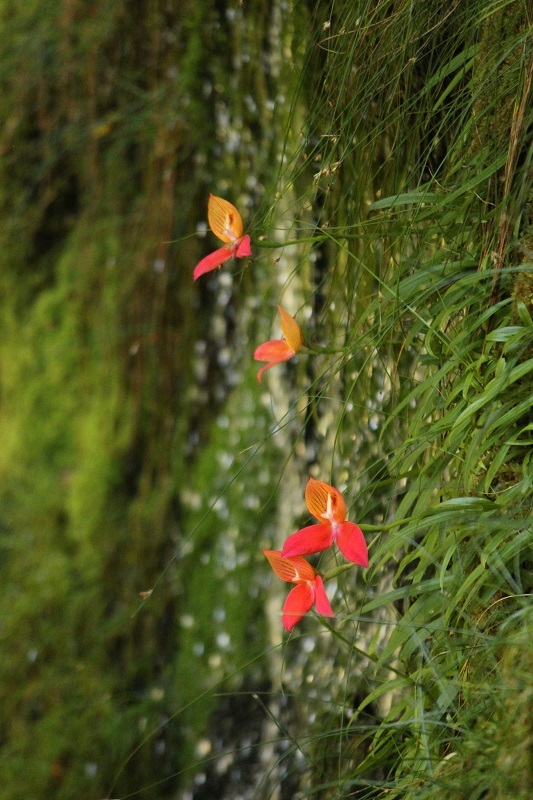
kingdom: Plantae
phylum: Tracheophyta
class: Liliopsida
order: Asparagales
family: Orchidaceae
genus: Disa
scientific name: Disa uniflora
